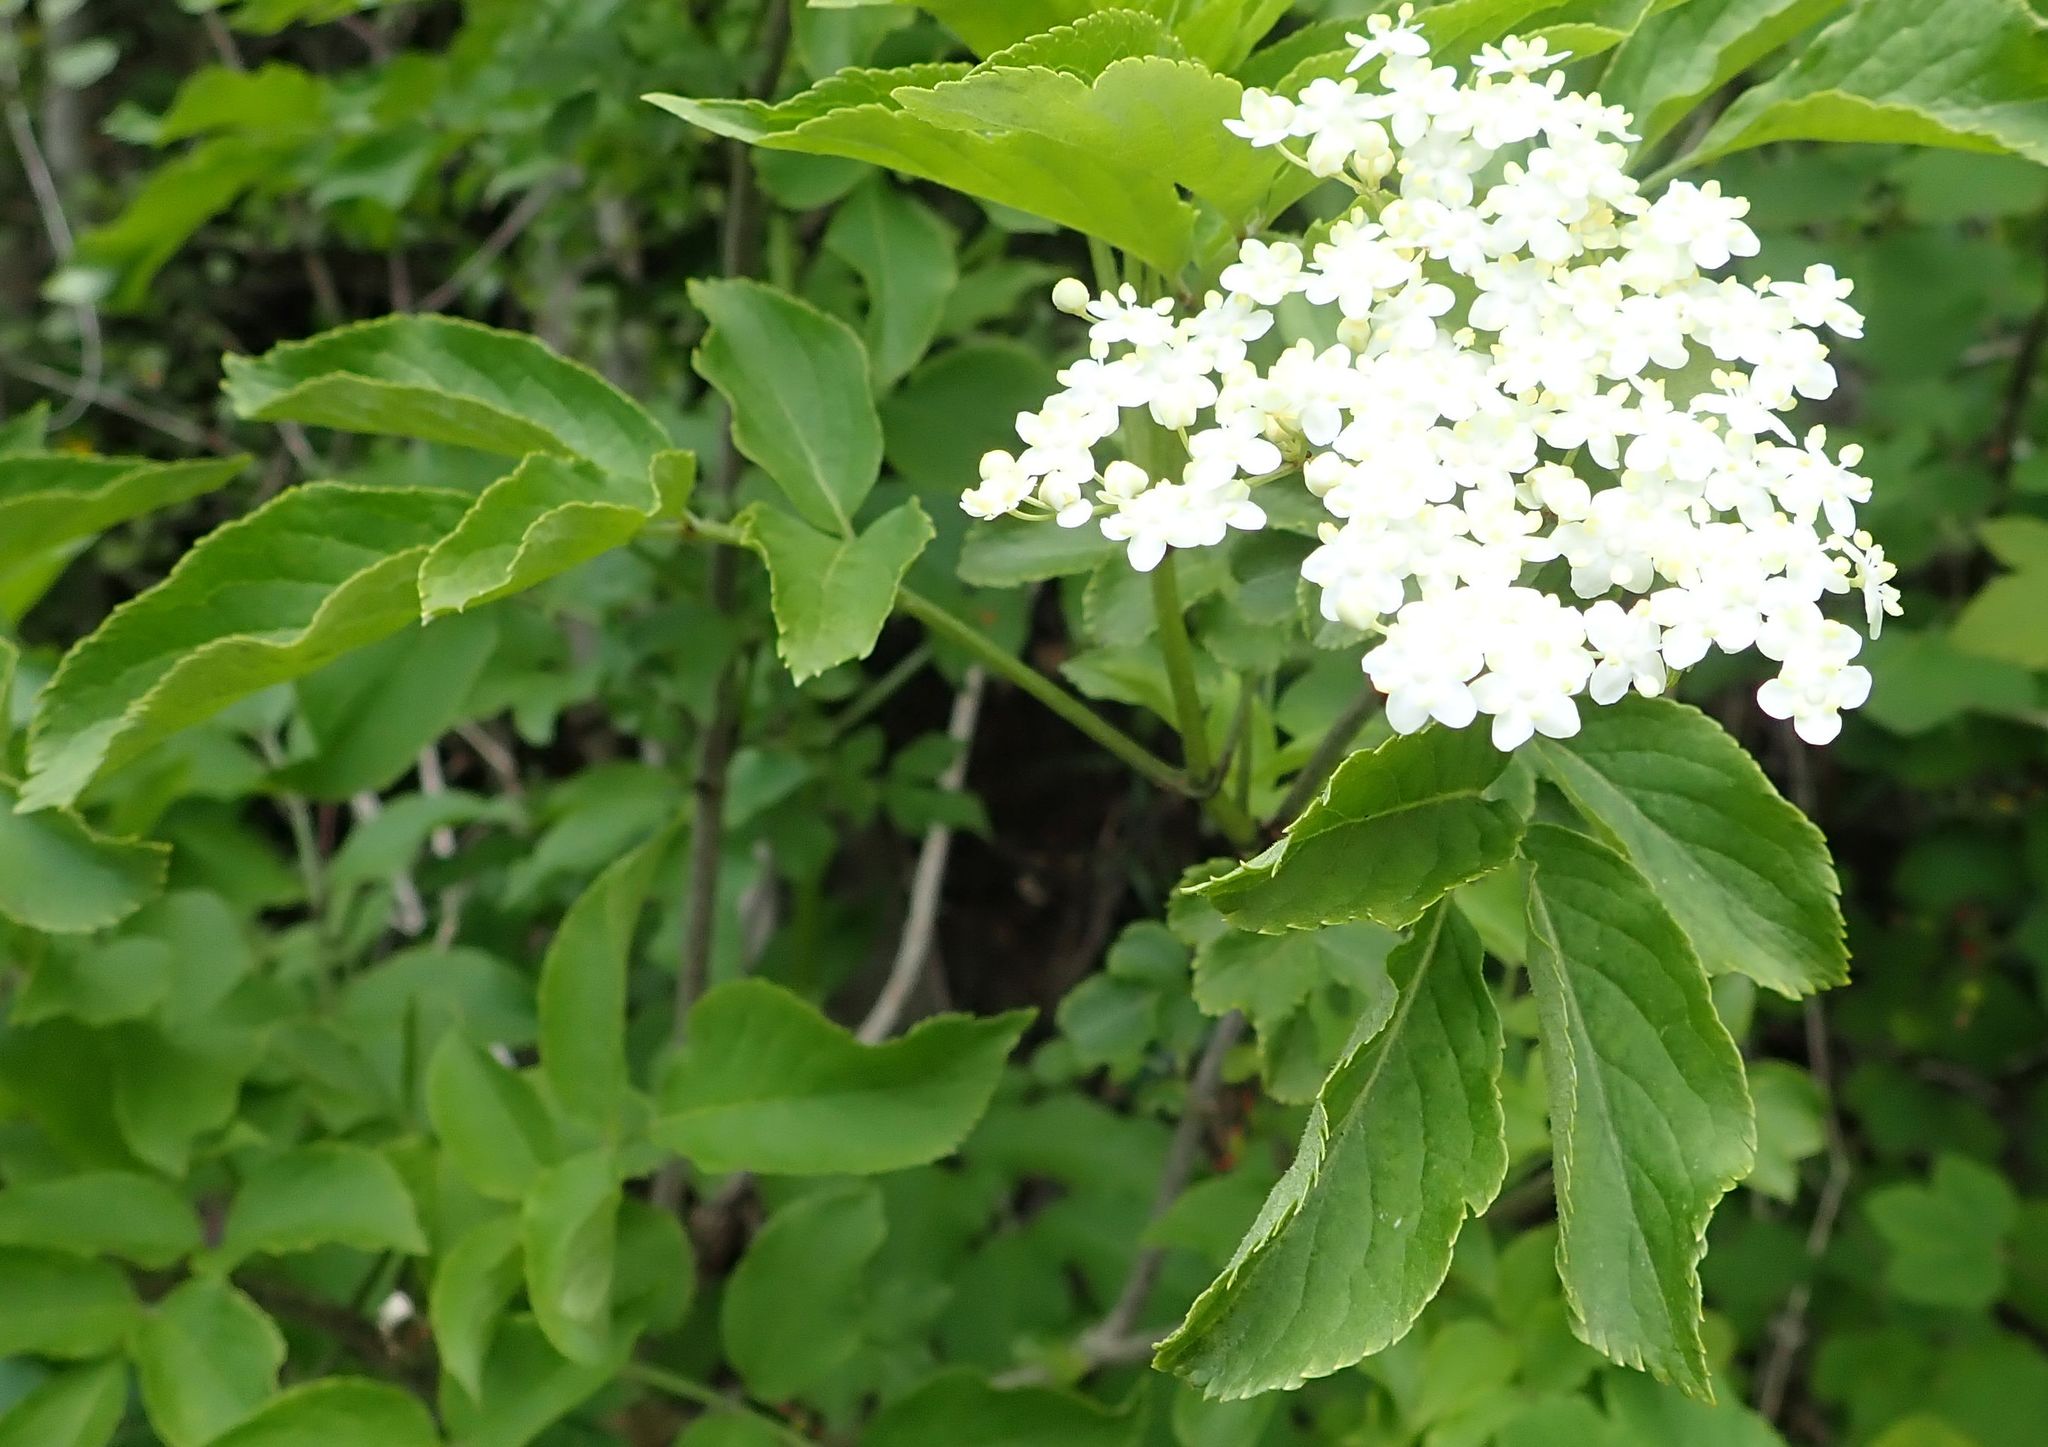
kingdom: Plantae
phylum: Tracheophyta
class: Magnoliopsida
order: Dipsacales
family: Viburnaceae
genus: Sambucus
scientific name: Sambucus nigra
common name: Elder
